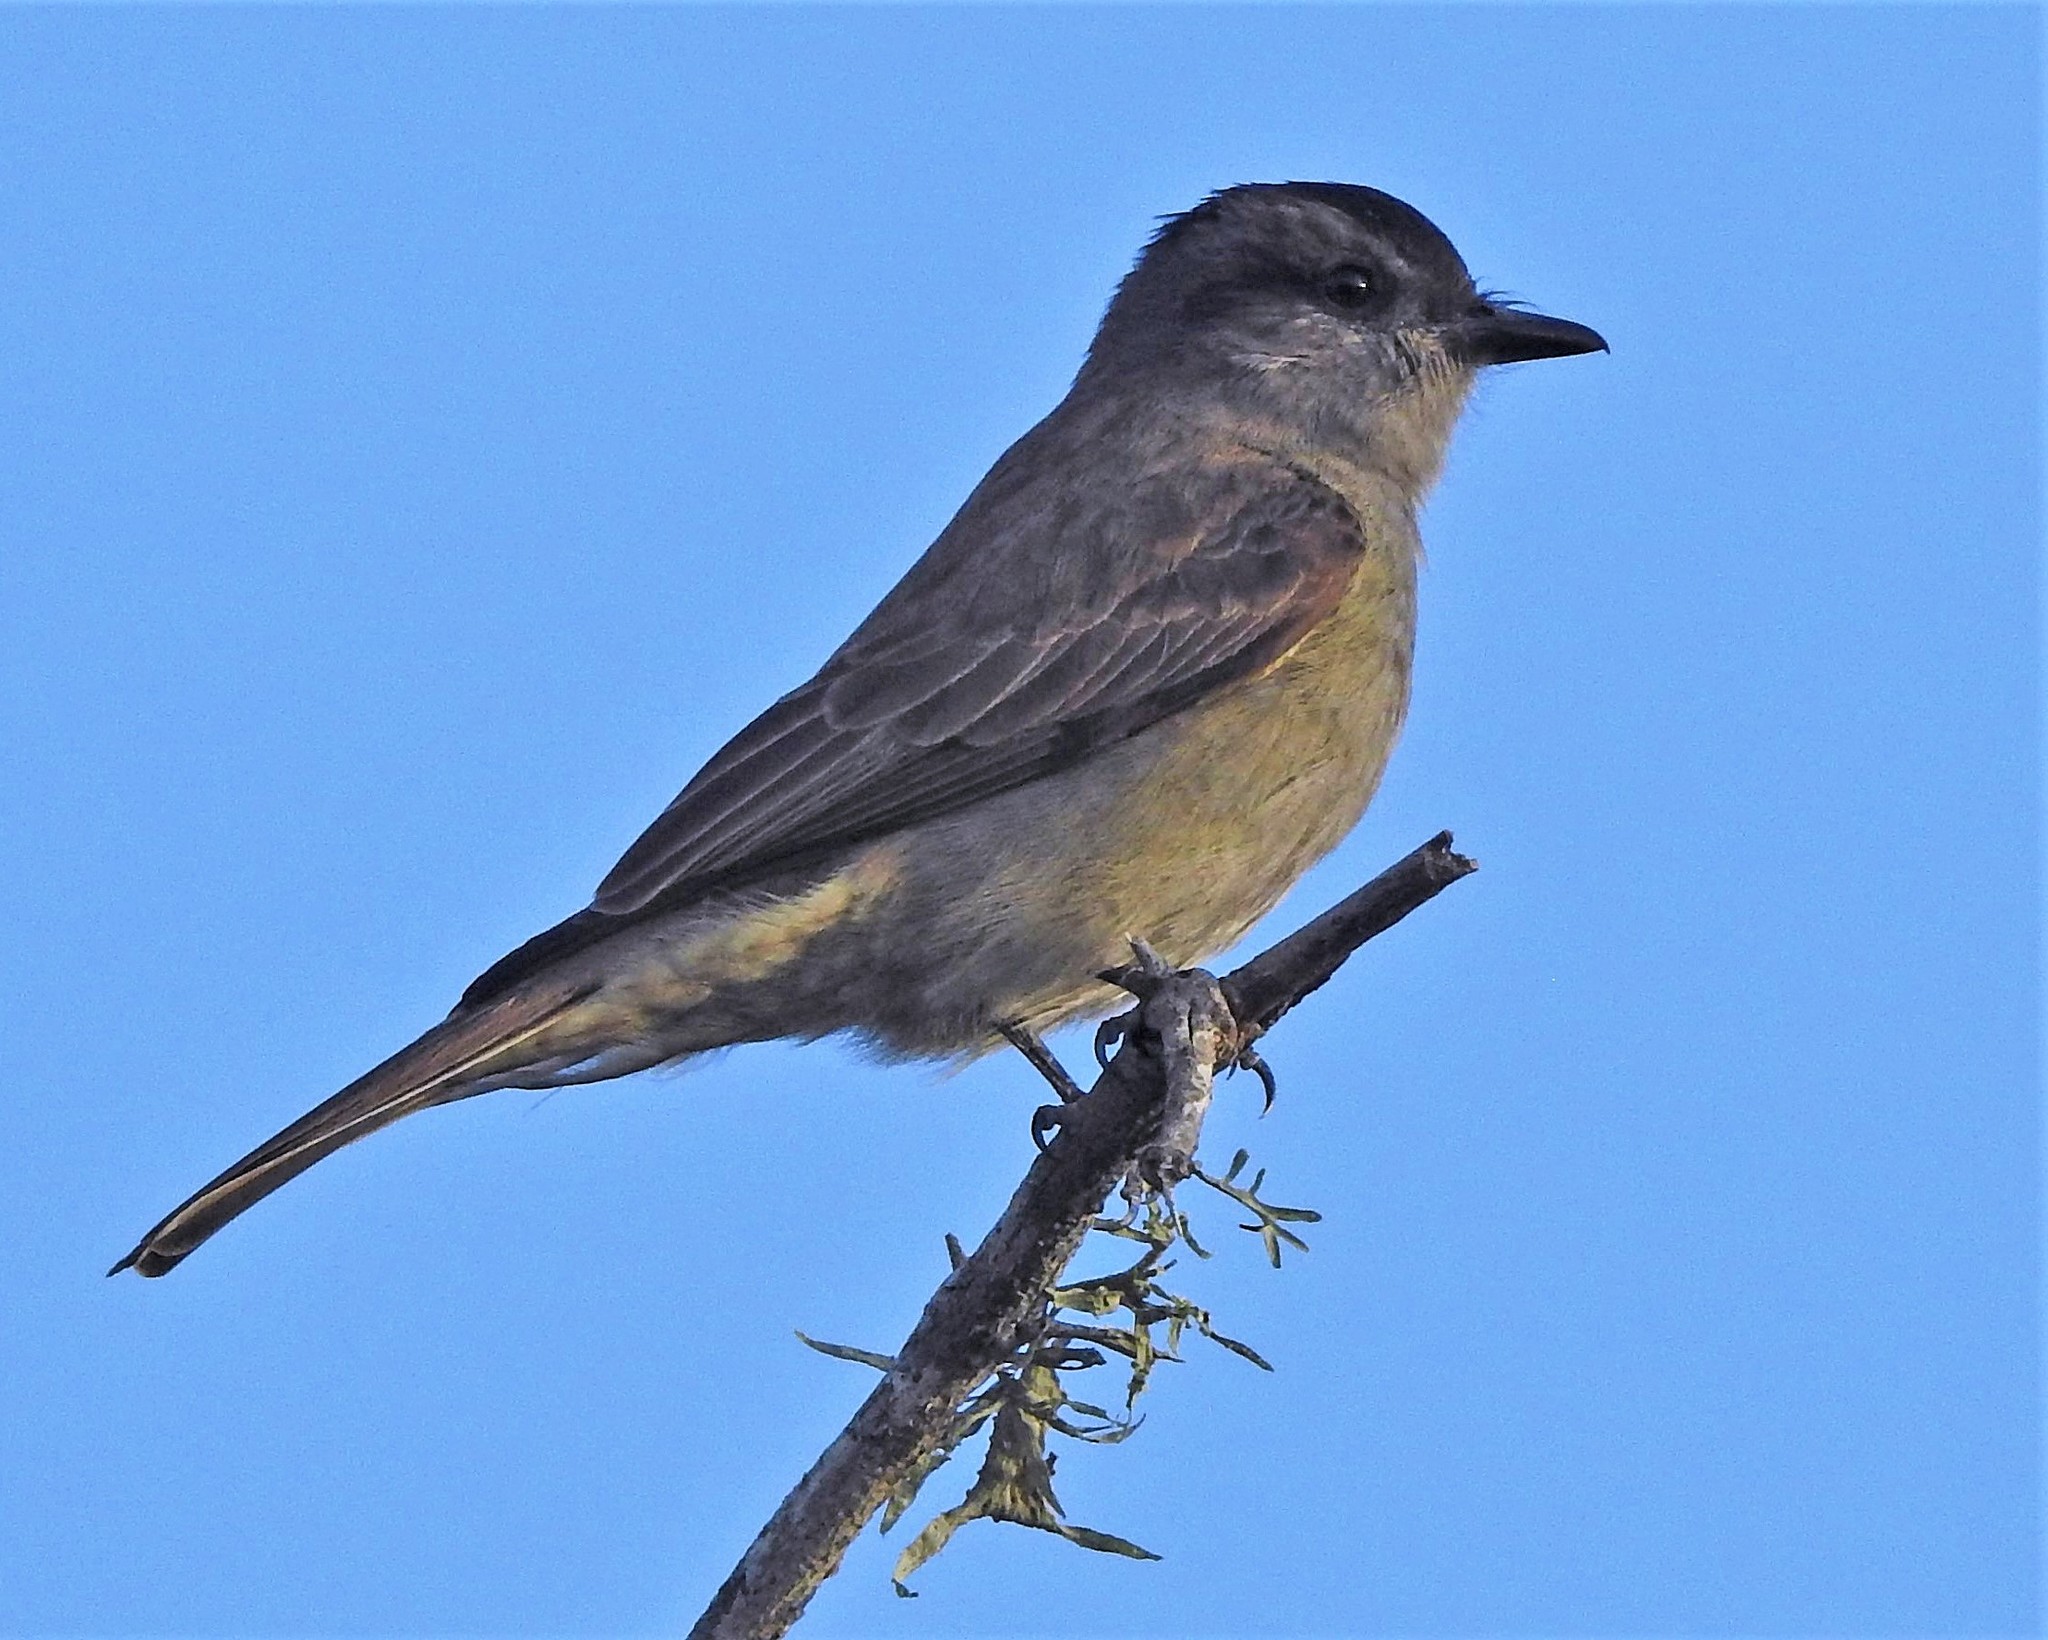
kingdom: Animalia
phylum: Chordata
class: Aves
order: Passeriformes
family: Tyrannidae
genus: Empidonomus
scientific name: Empidonomus aurantioatrocristatus
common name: Crowned slaty flycatcher
